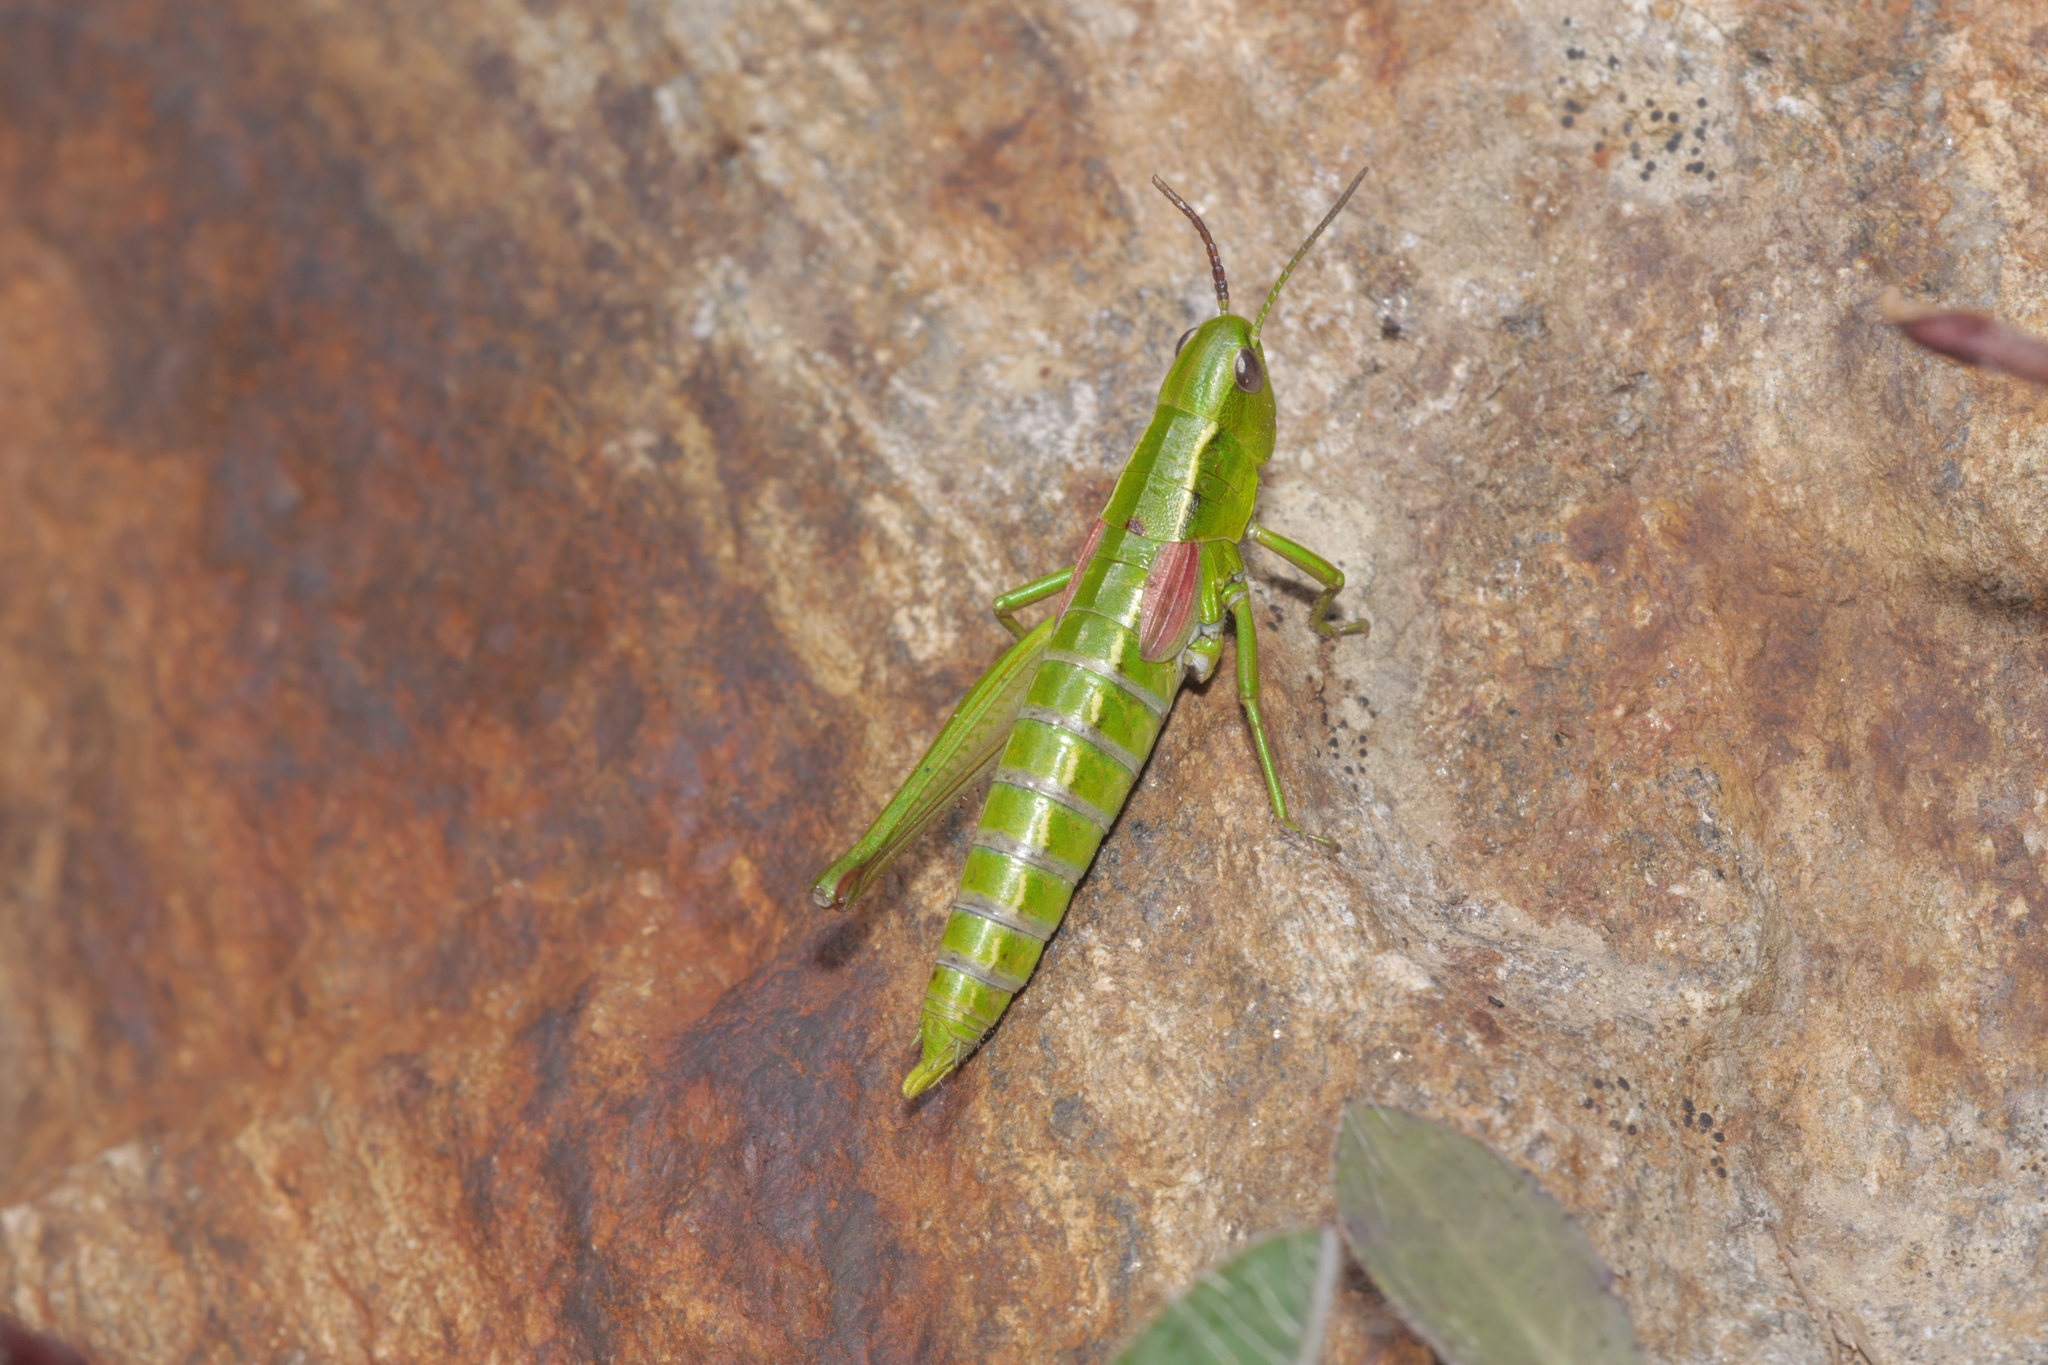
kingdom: Animalia
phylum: Arthropoda
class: Insecta
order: Orthoptera
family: Acrididae
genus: Euthystira
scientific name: Euthystira brachyptera
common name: Small gold grasshopper
